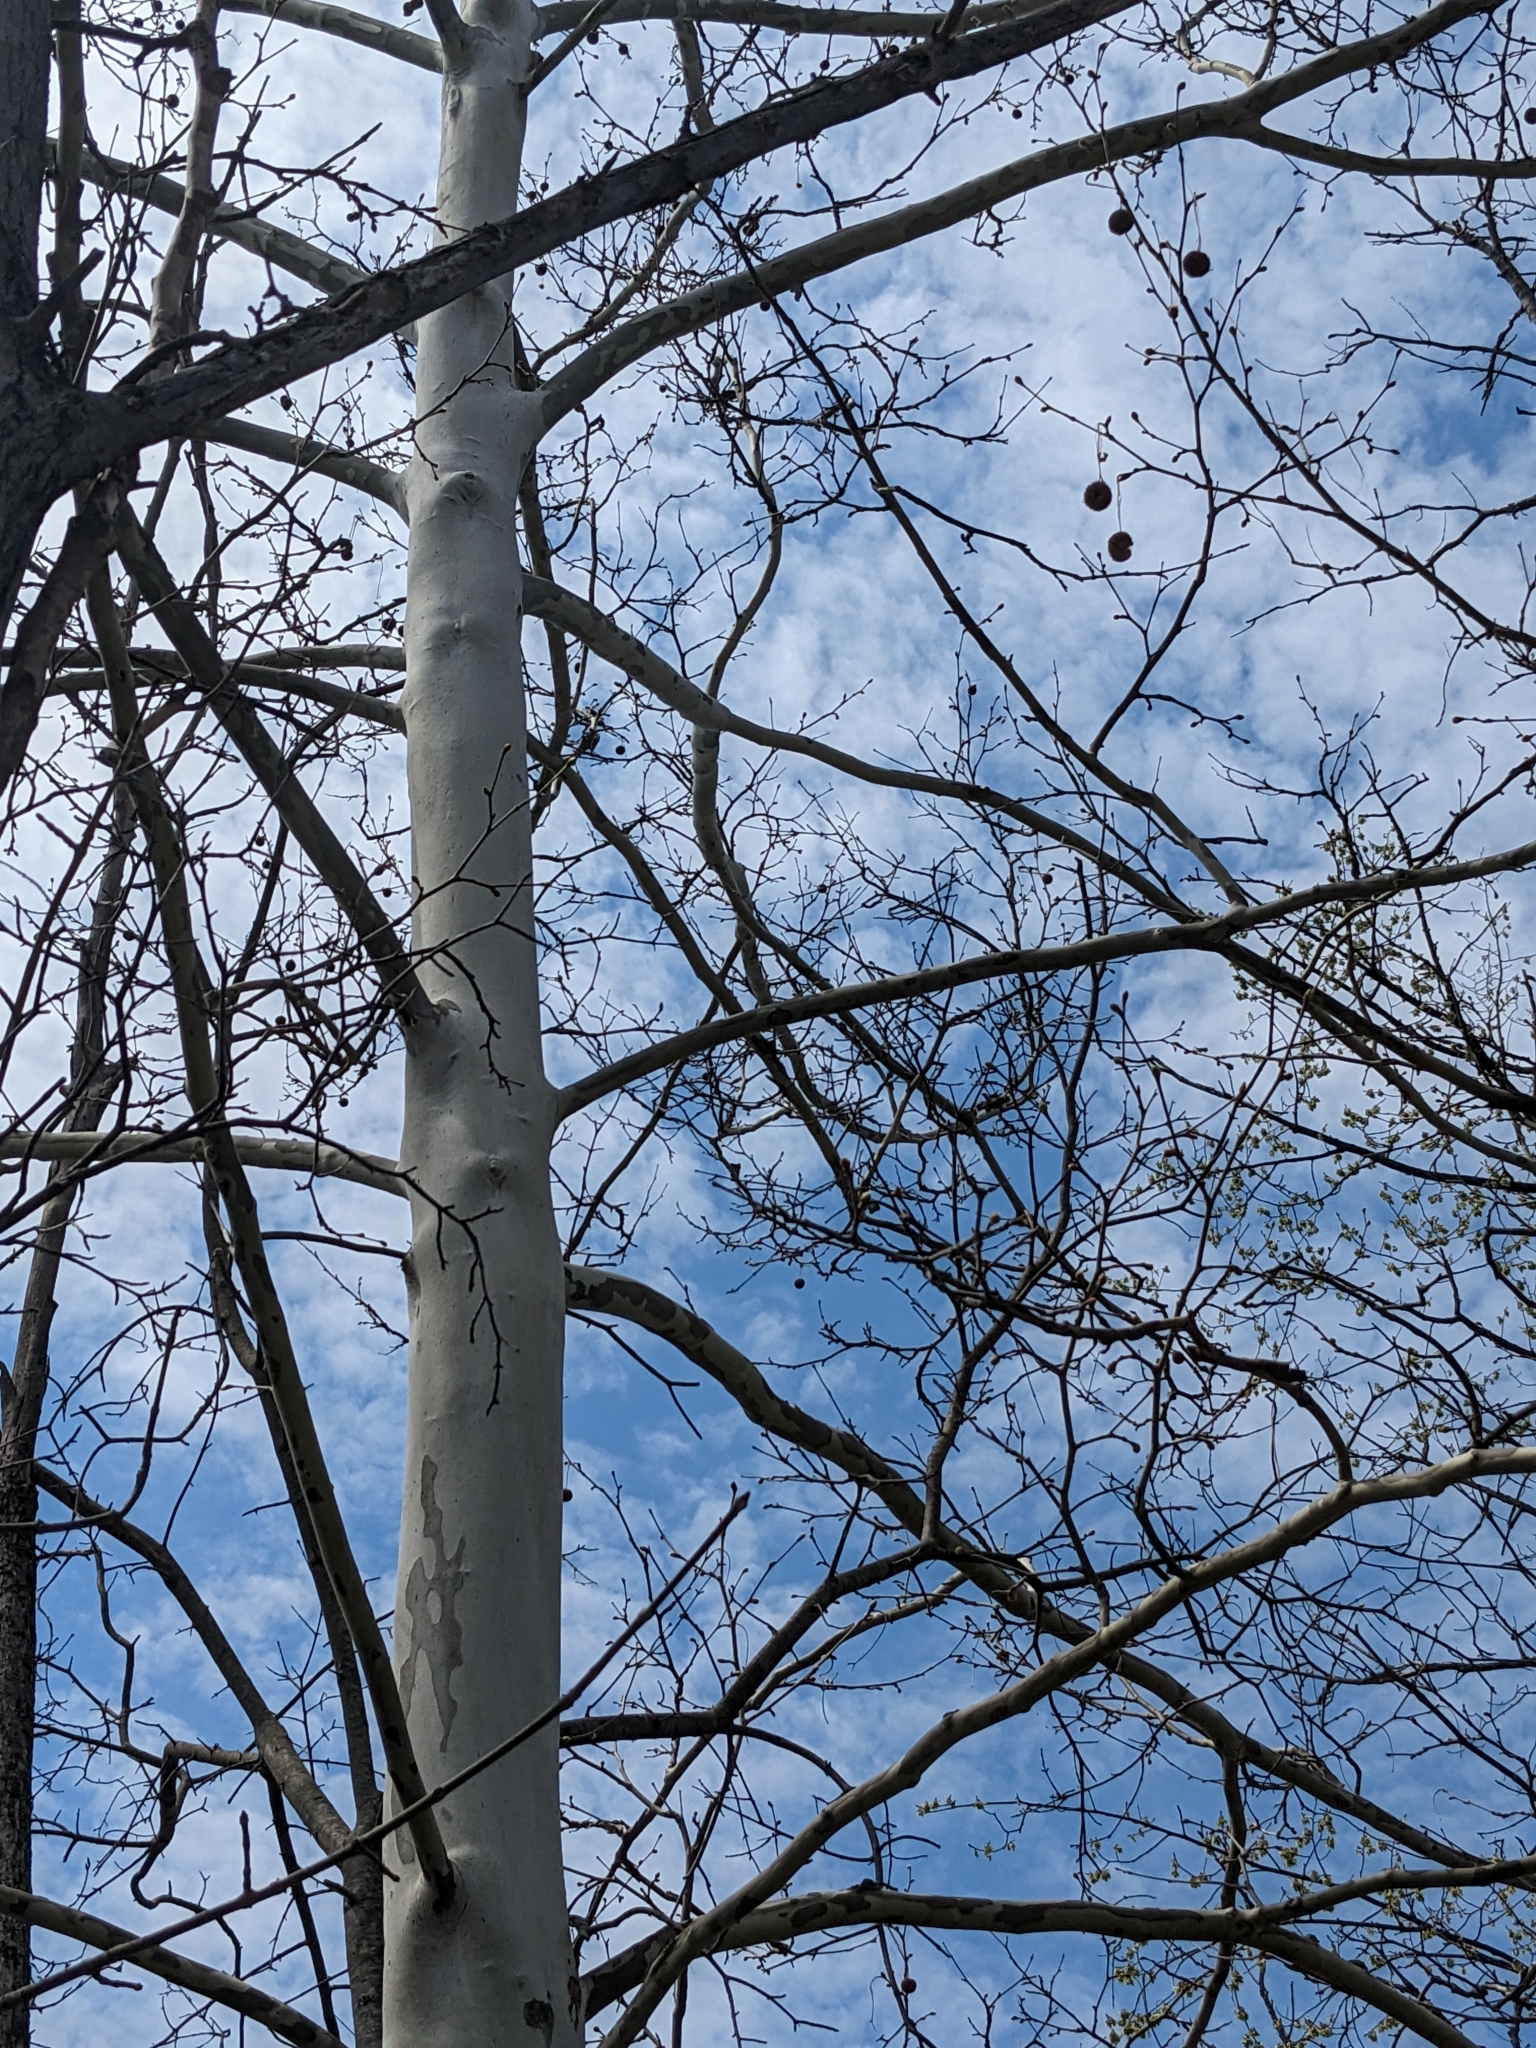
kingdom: Plantae
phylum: Tracheophyta
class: Magnoliopsida
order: Proteales
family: Platanaceae
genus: Platanus
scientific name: Platanus occidentalis
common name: American sycamore
